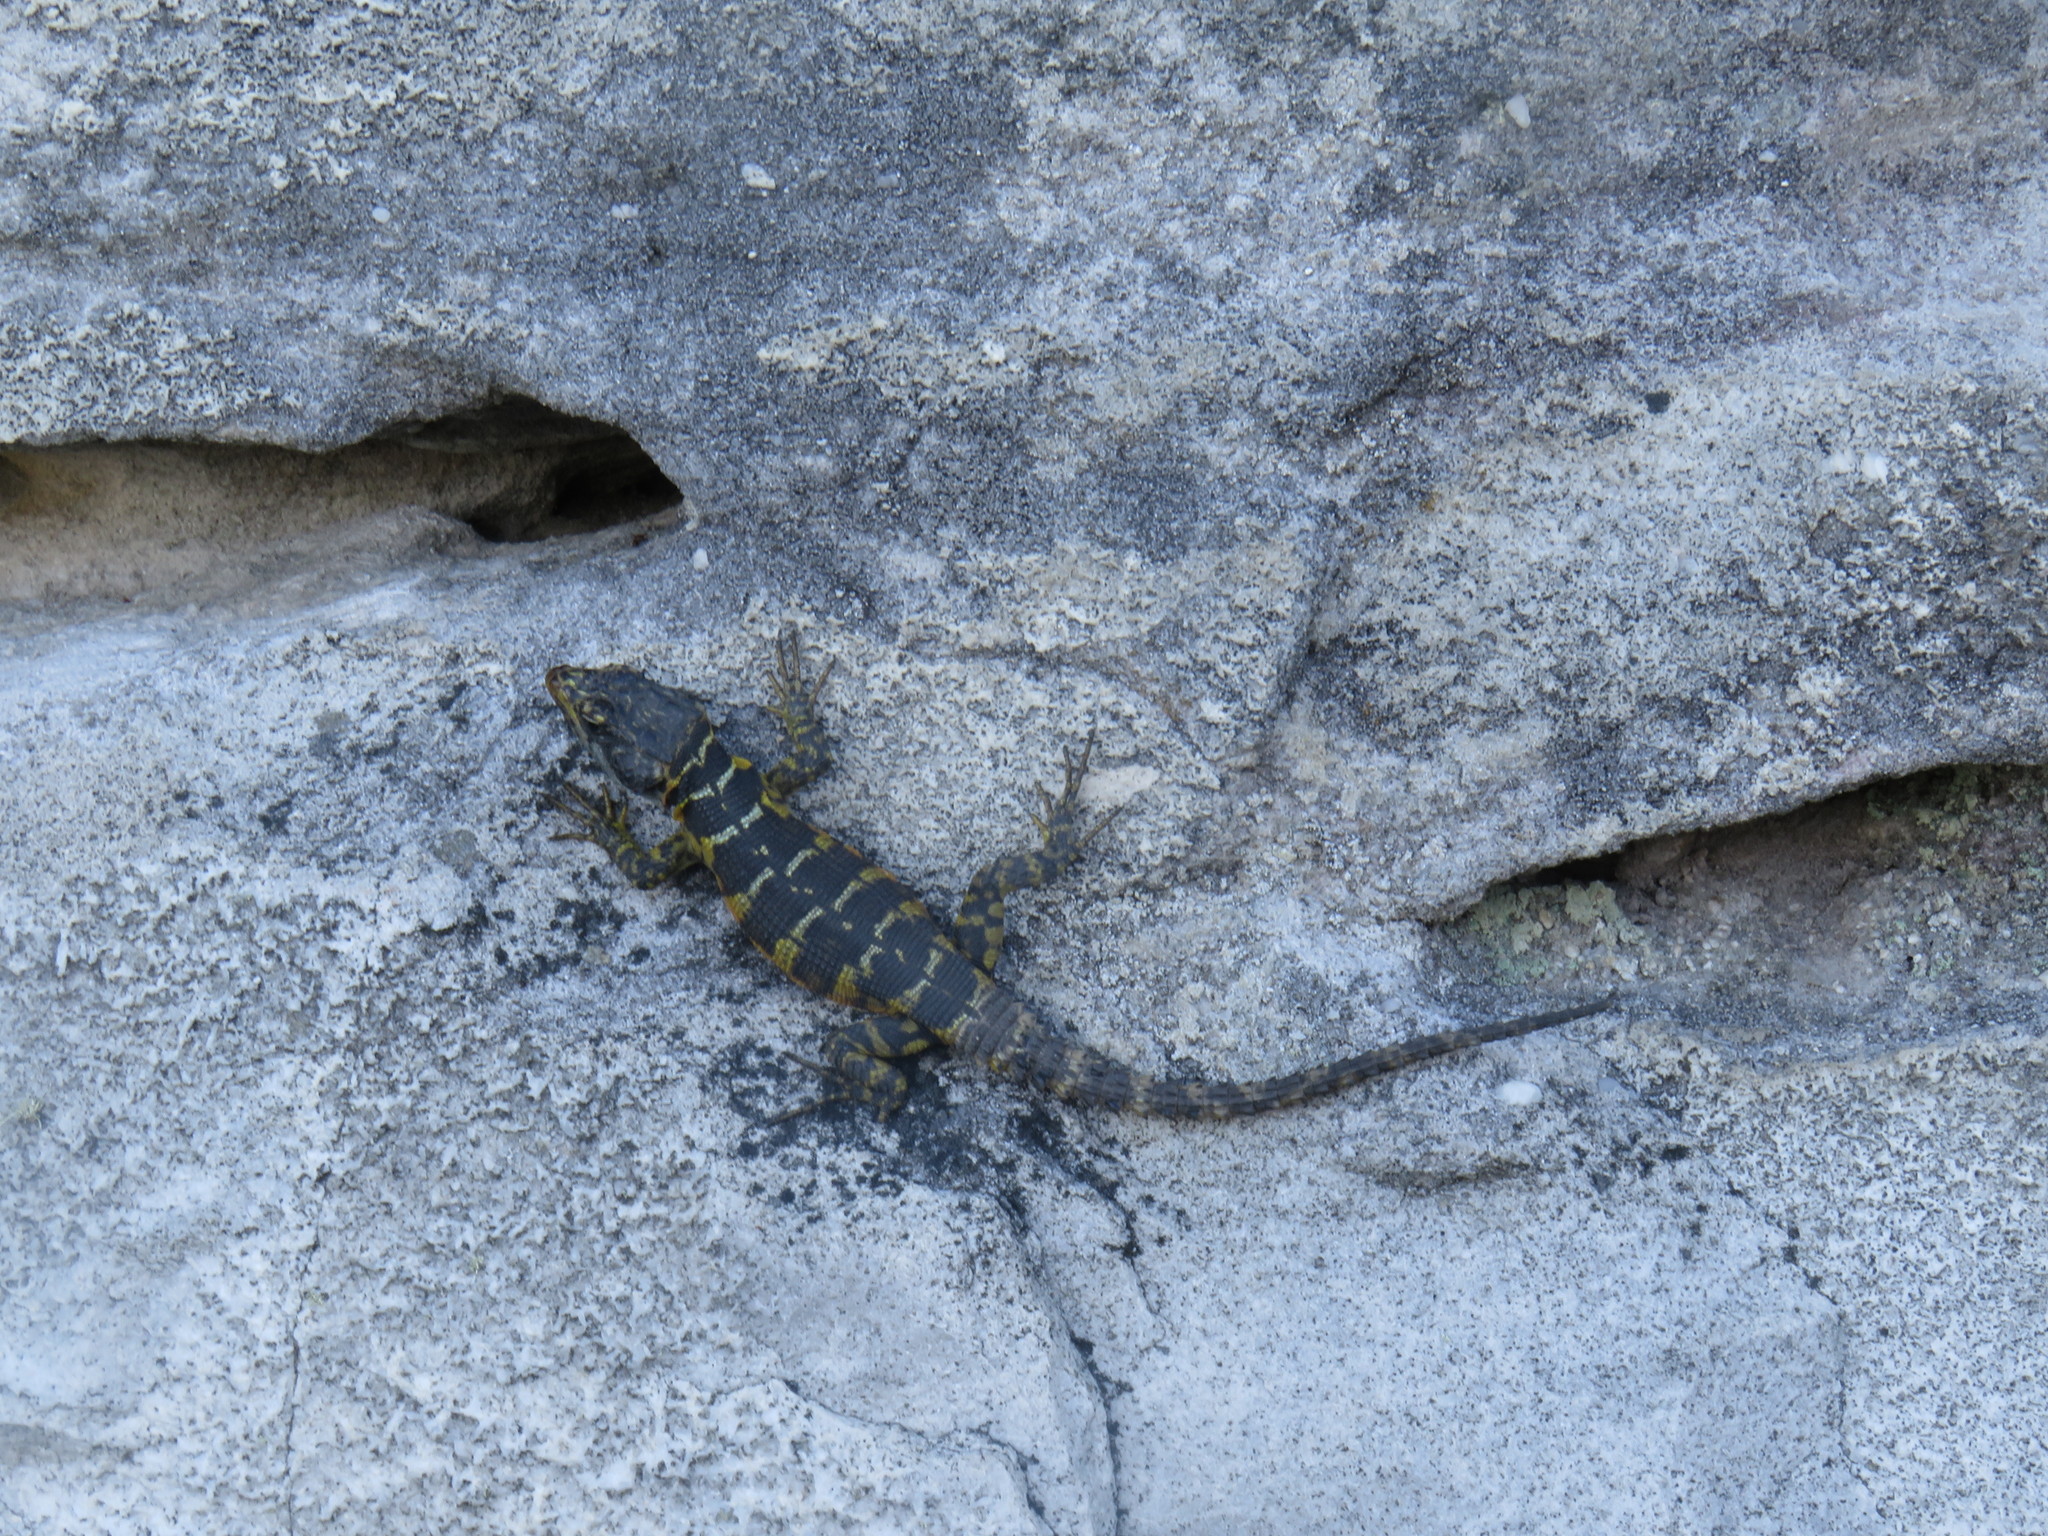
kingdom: Animalia
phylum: Chordata
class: Squamata
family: Cordylidae
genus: Pseudocordylus
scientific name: Pseudocordylus microlepidotus
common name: Cape crag lizard
